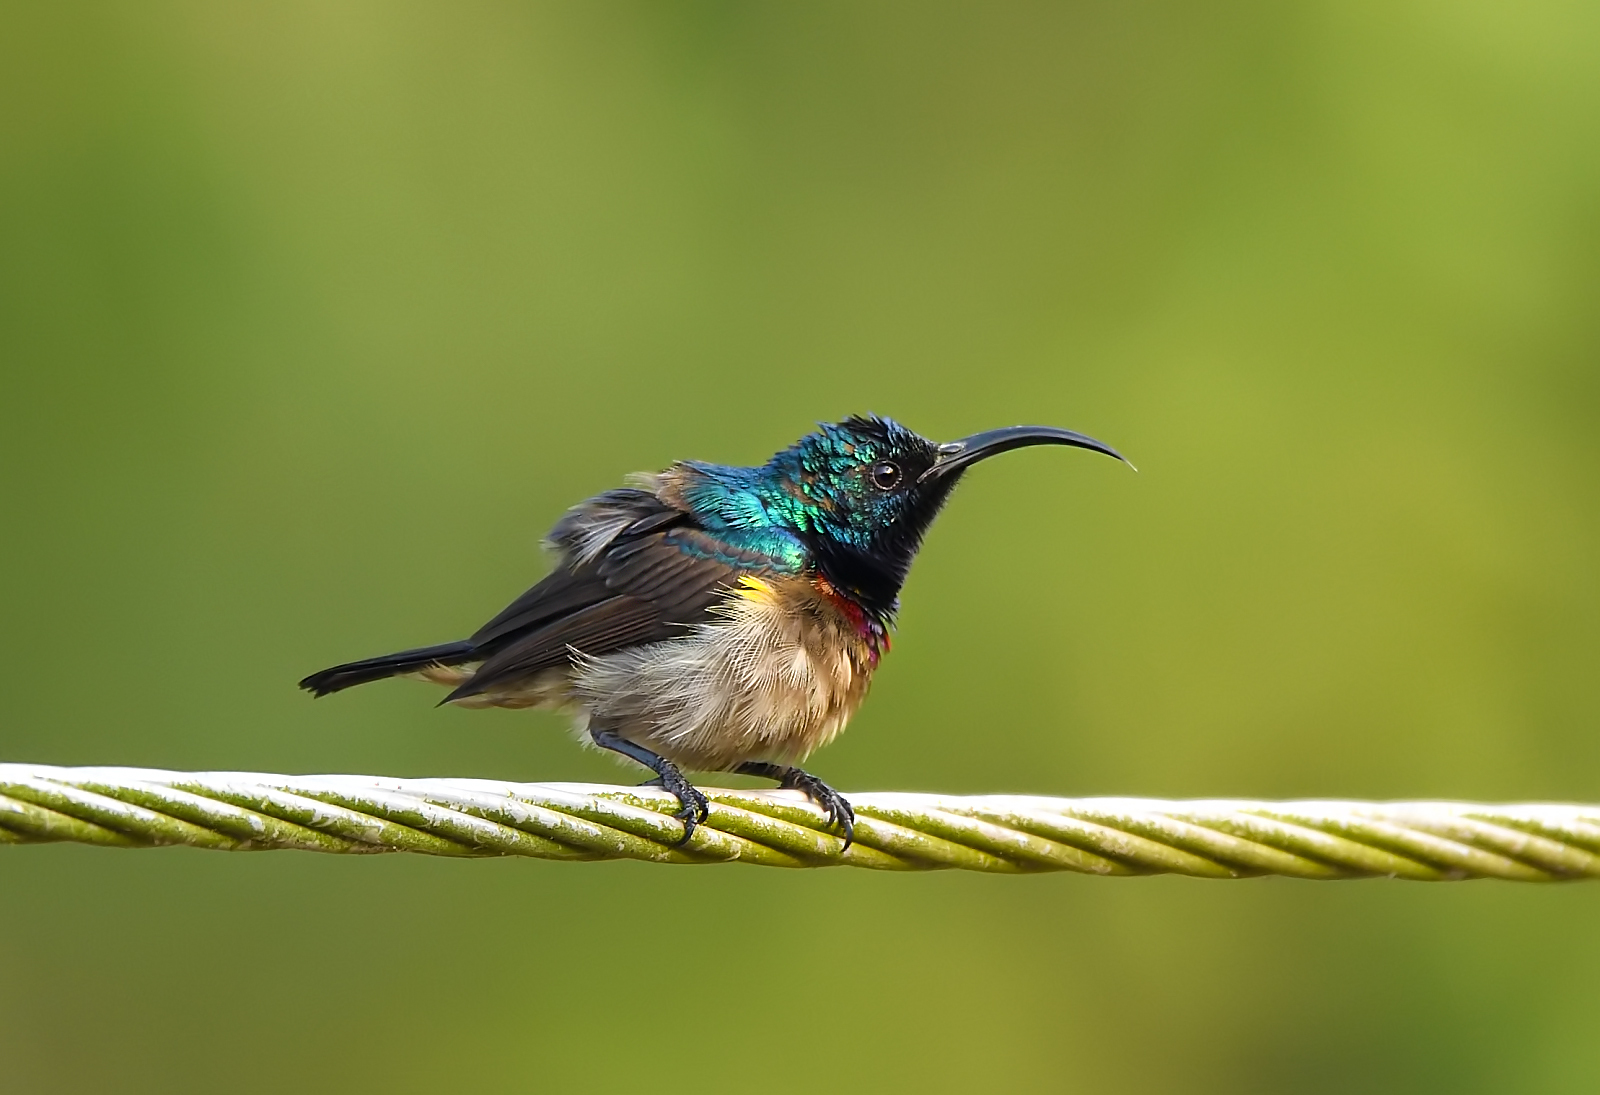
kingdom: Animalia
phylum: Chordata
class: Aves
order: Passeriformes
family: Nectariniidae
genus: Cinnyris
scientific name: Cinnyris lotenius
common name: Loten's sunbird
